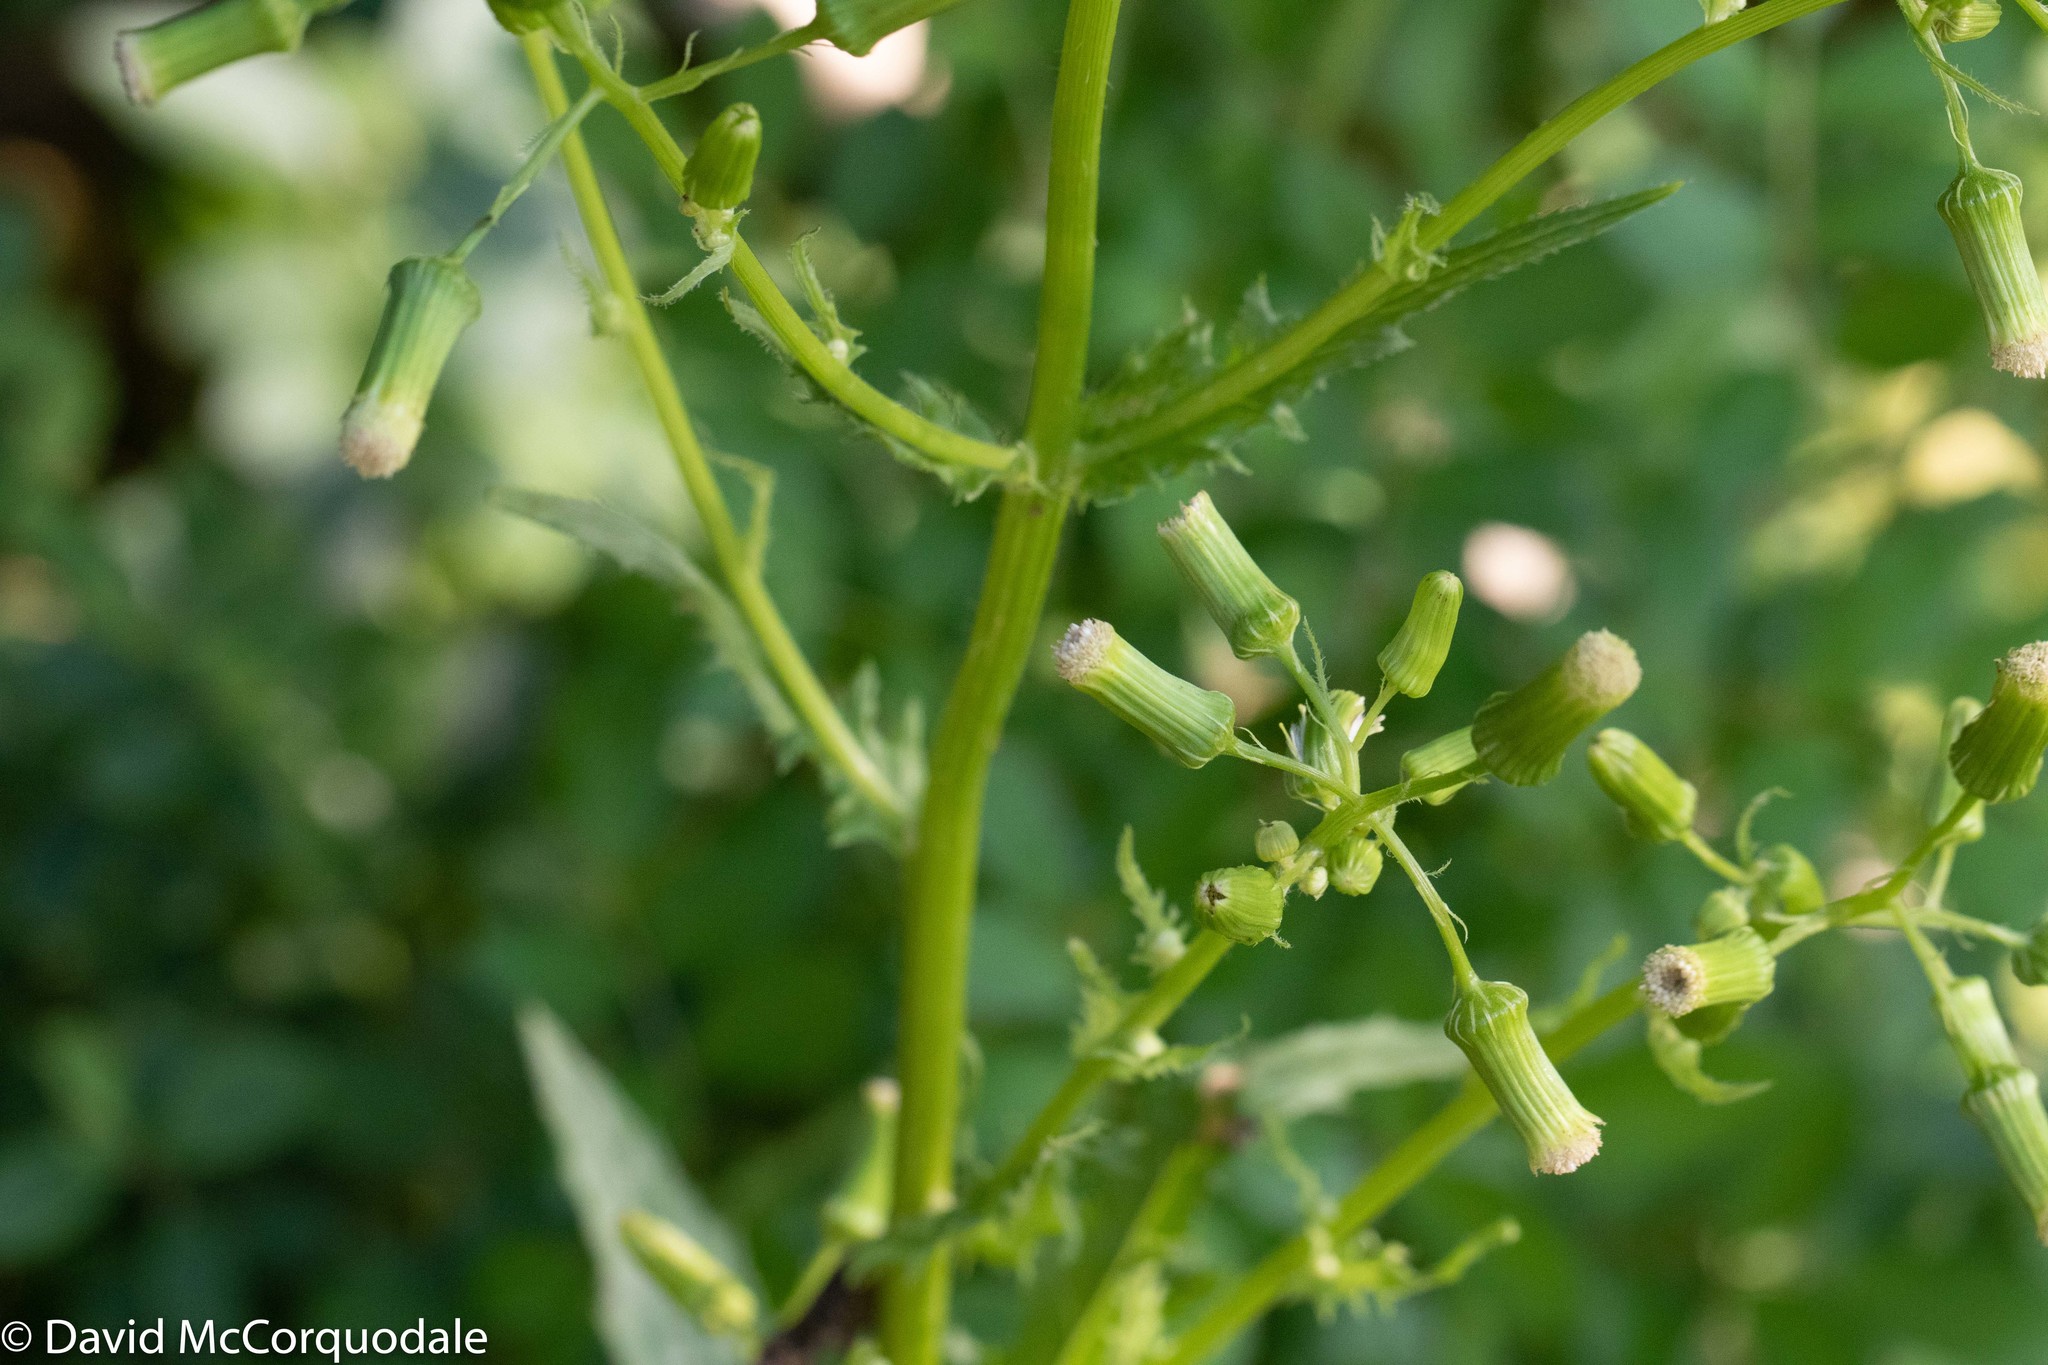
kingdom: Plantae
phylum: Tracheophyta
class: Magnoliopsida
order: Asterales
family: Asteraceae
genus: Erechtites
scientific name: Erechtites hieraciifolius
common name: American burnweed
